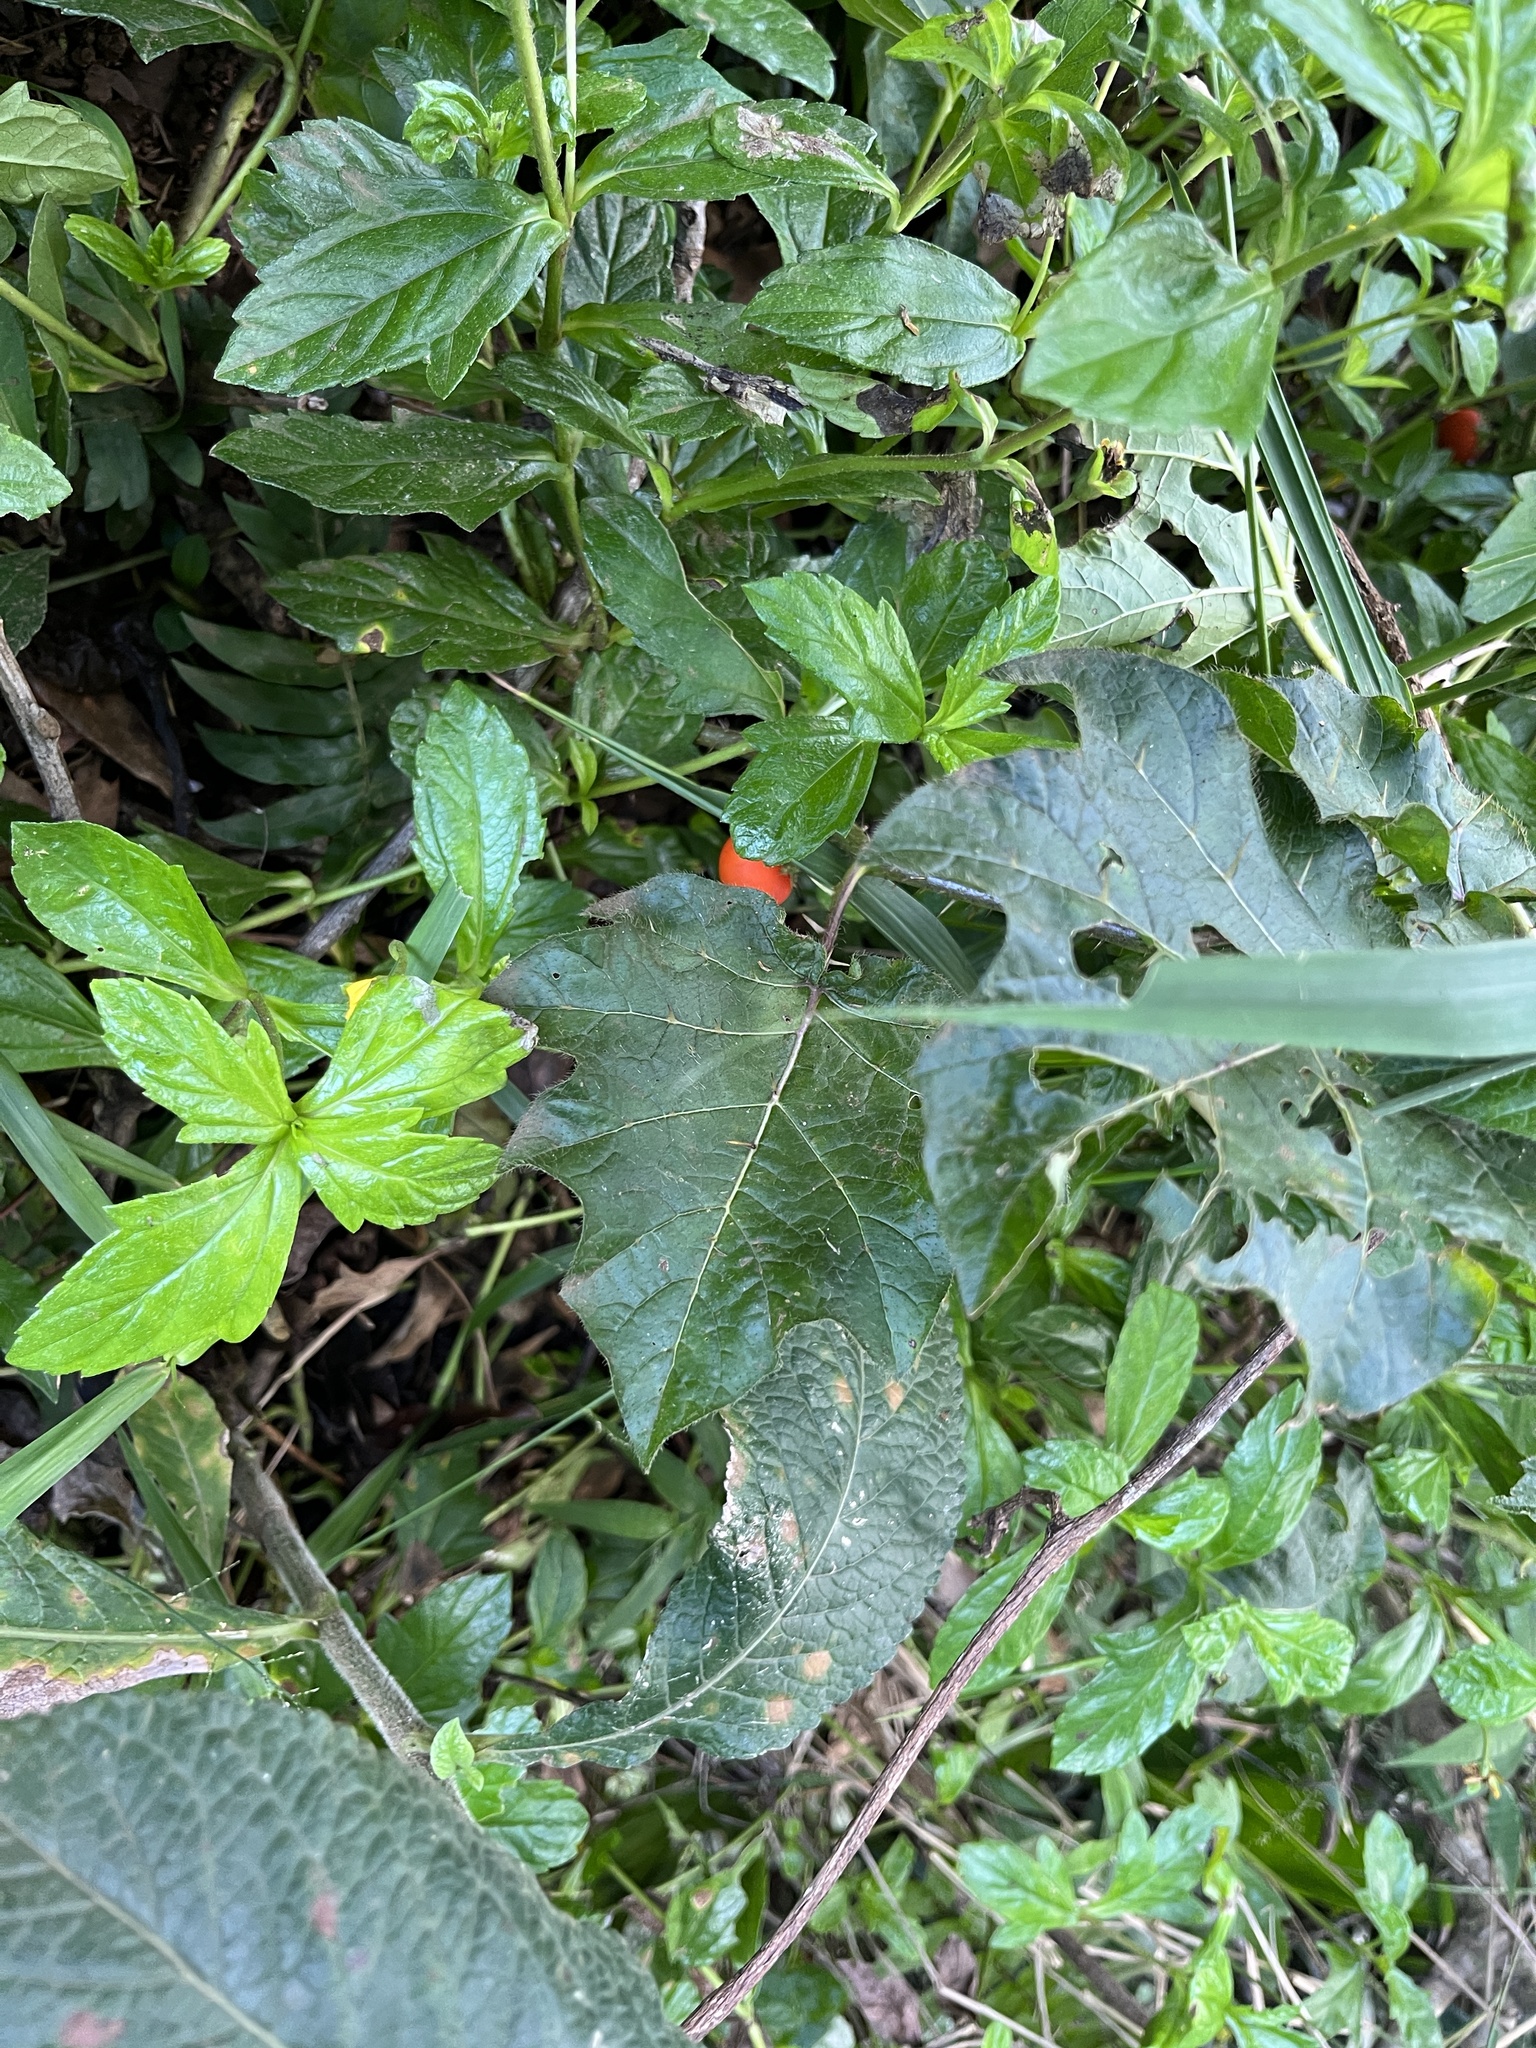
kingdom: Plantae
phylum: Tracheophyta
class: Magnoliopsida
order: Solanales
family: Solanaceae
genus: Solanum
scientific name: Solanum capsicoides
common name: Cockroach berry
